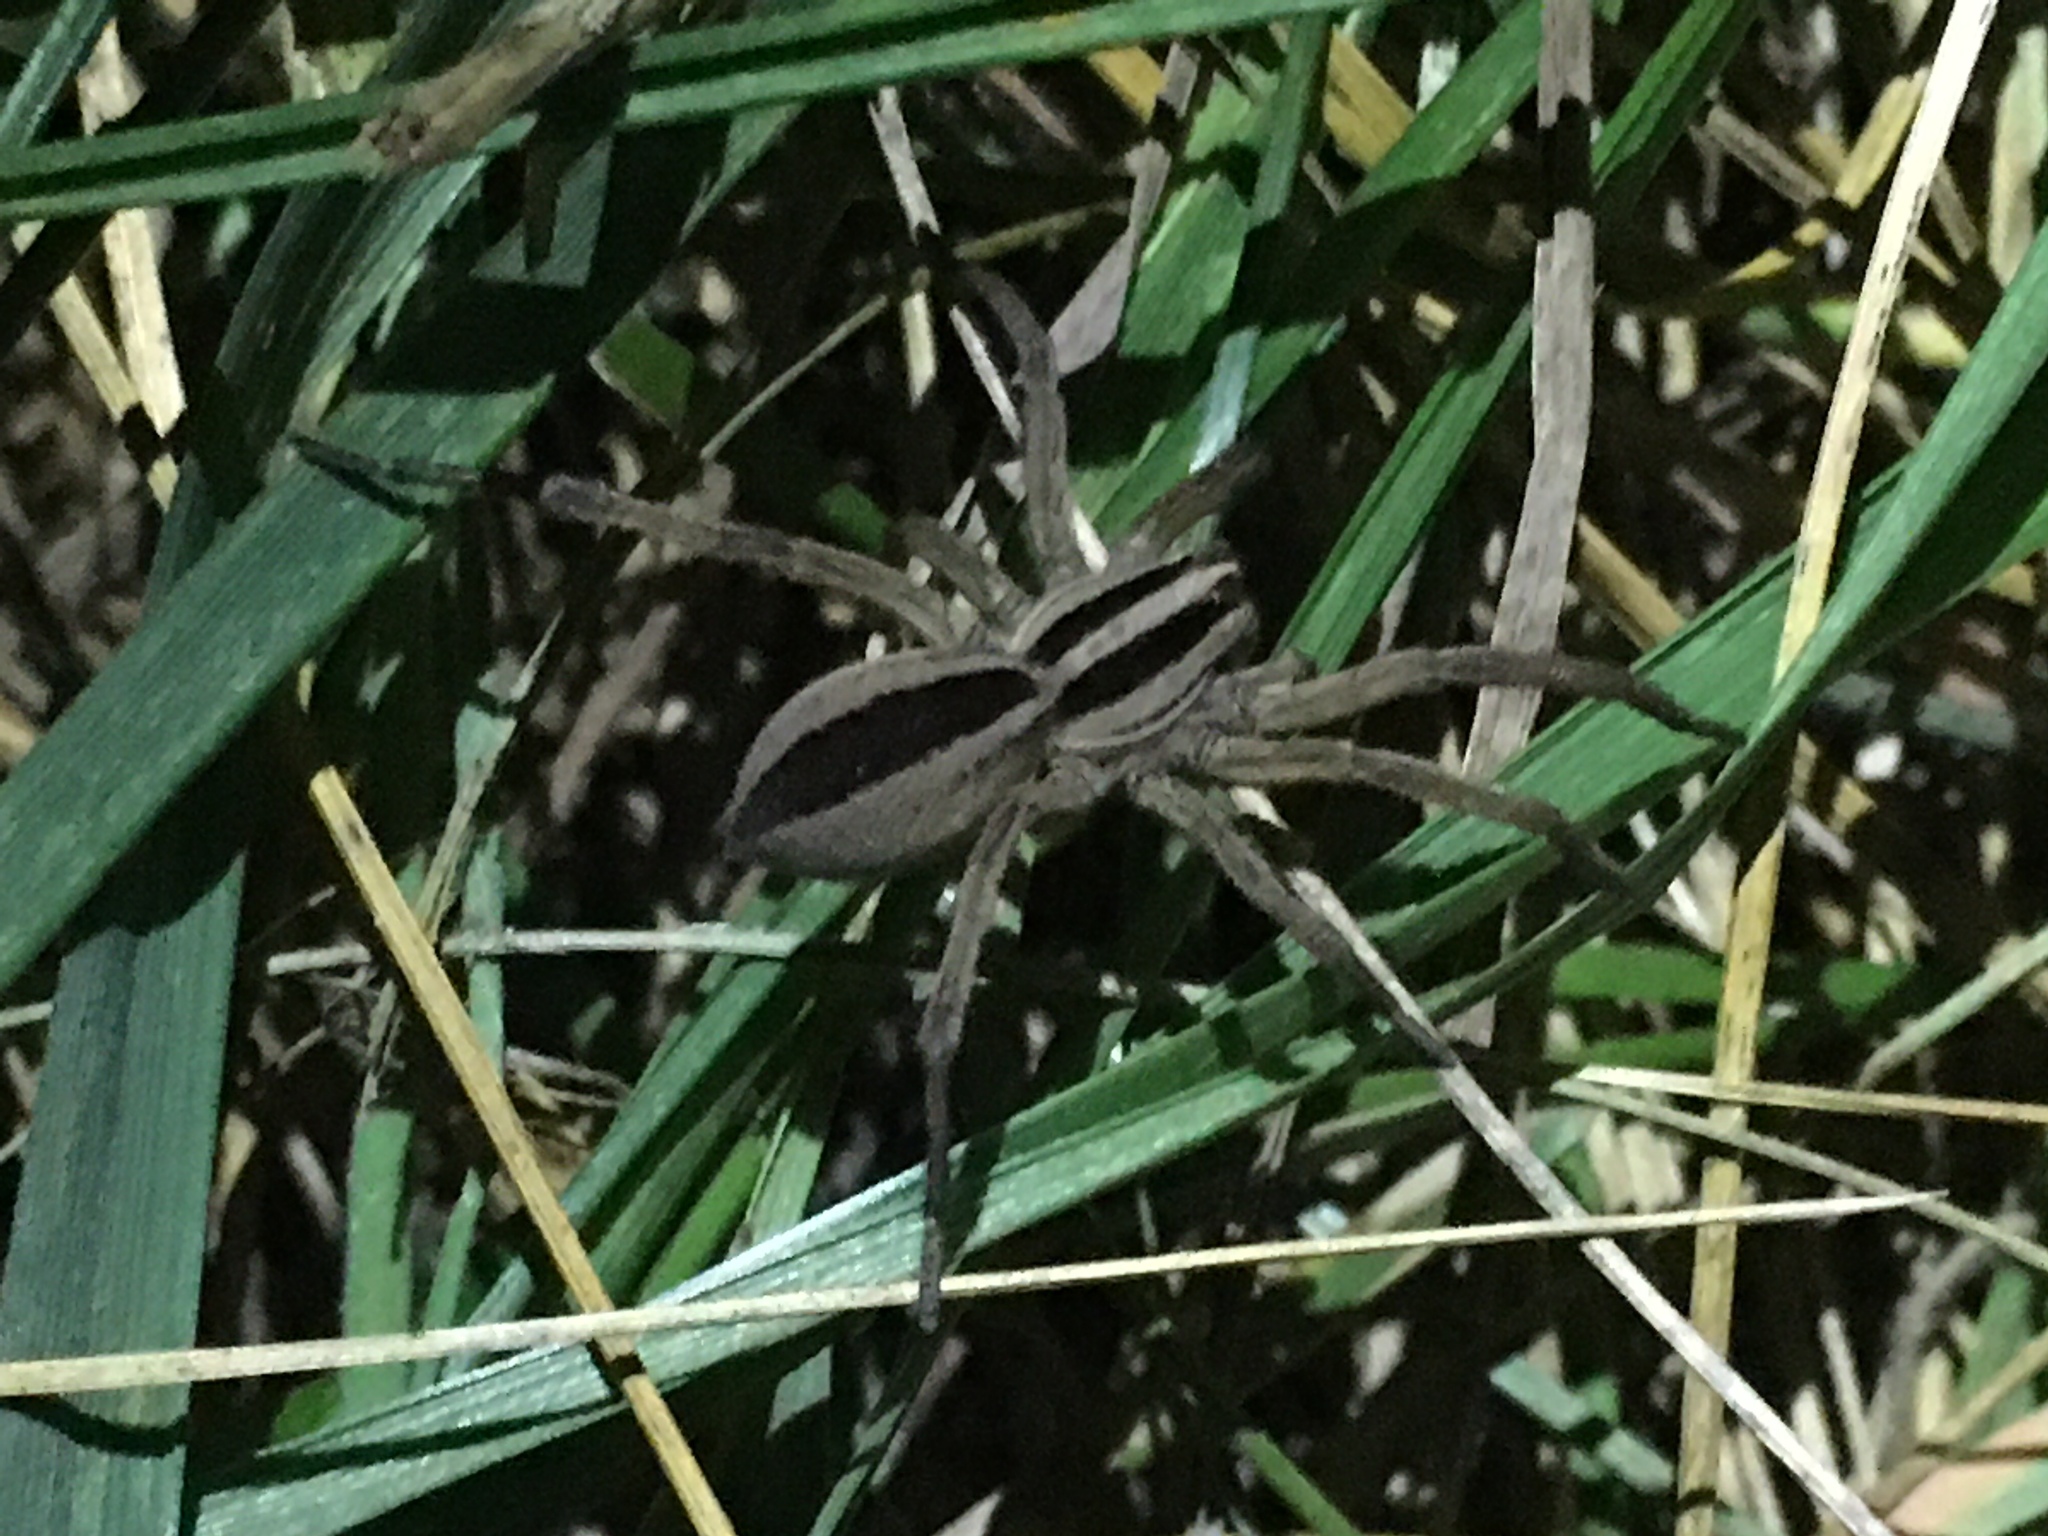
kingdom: Animalia
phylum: Arthropoda
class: Arachnida
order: Araneae
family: Lycosidae
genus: Rabidosa
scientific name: Rabidosa punctulata
